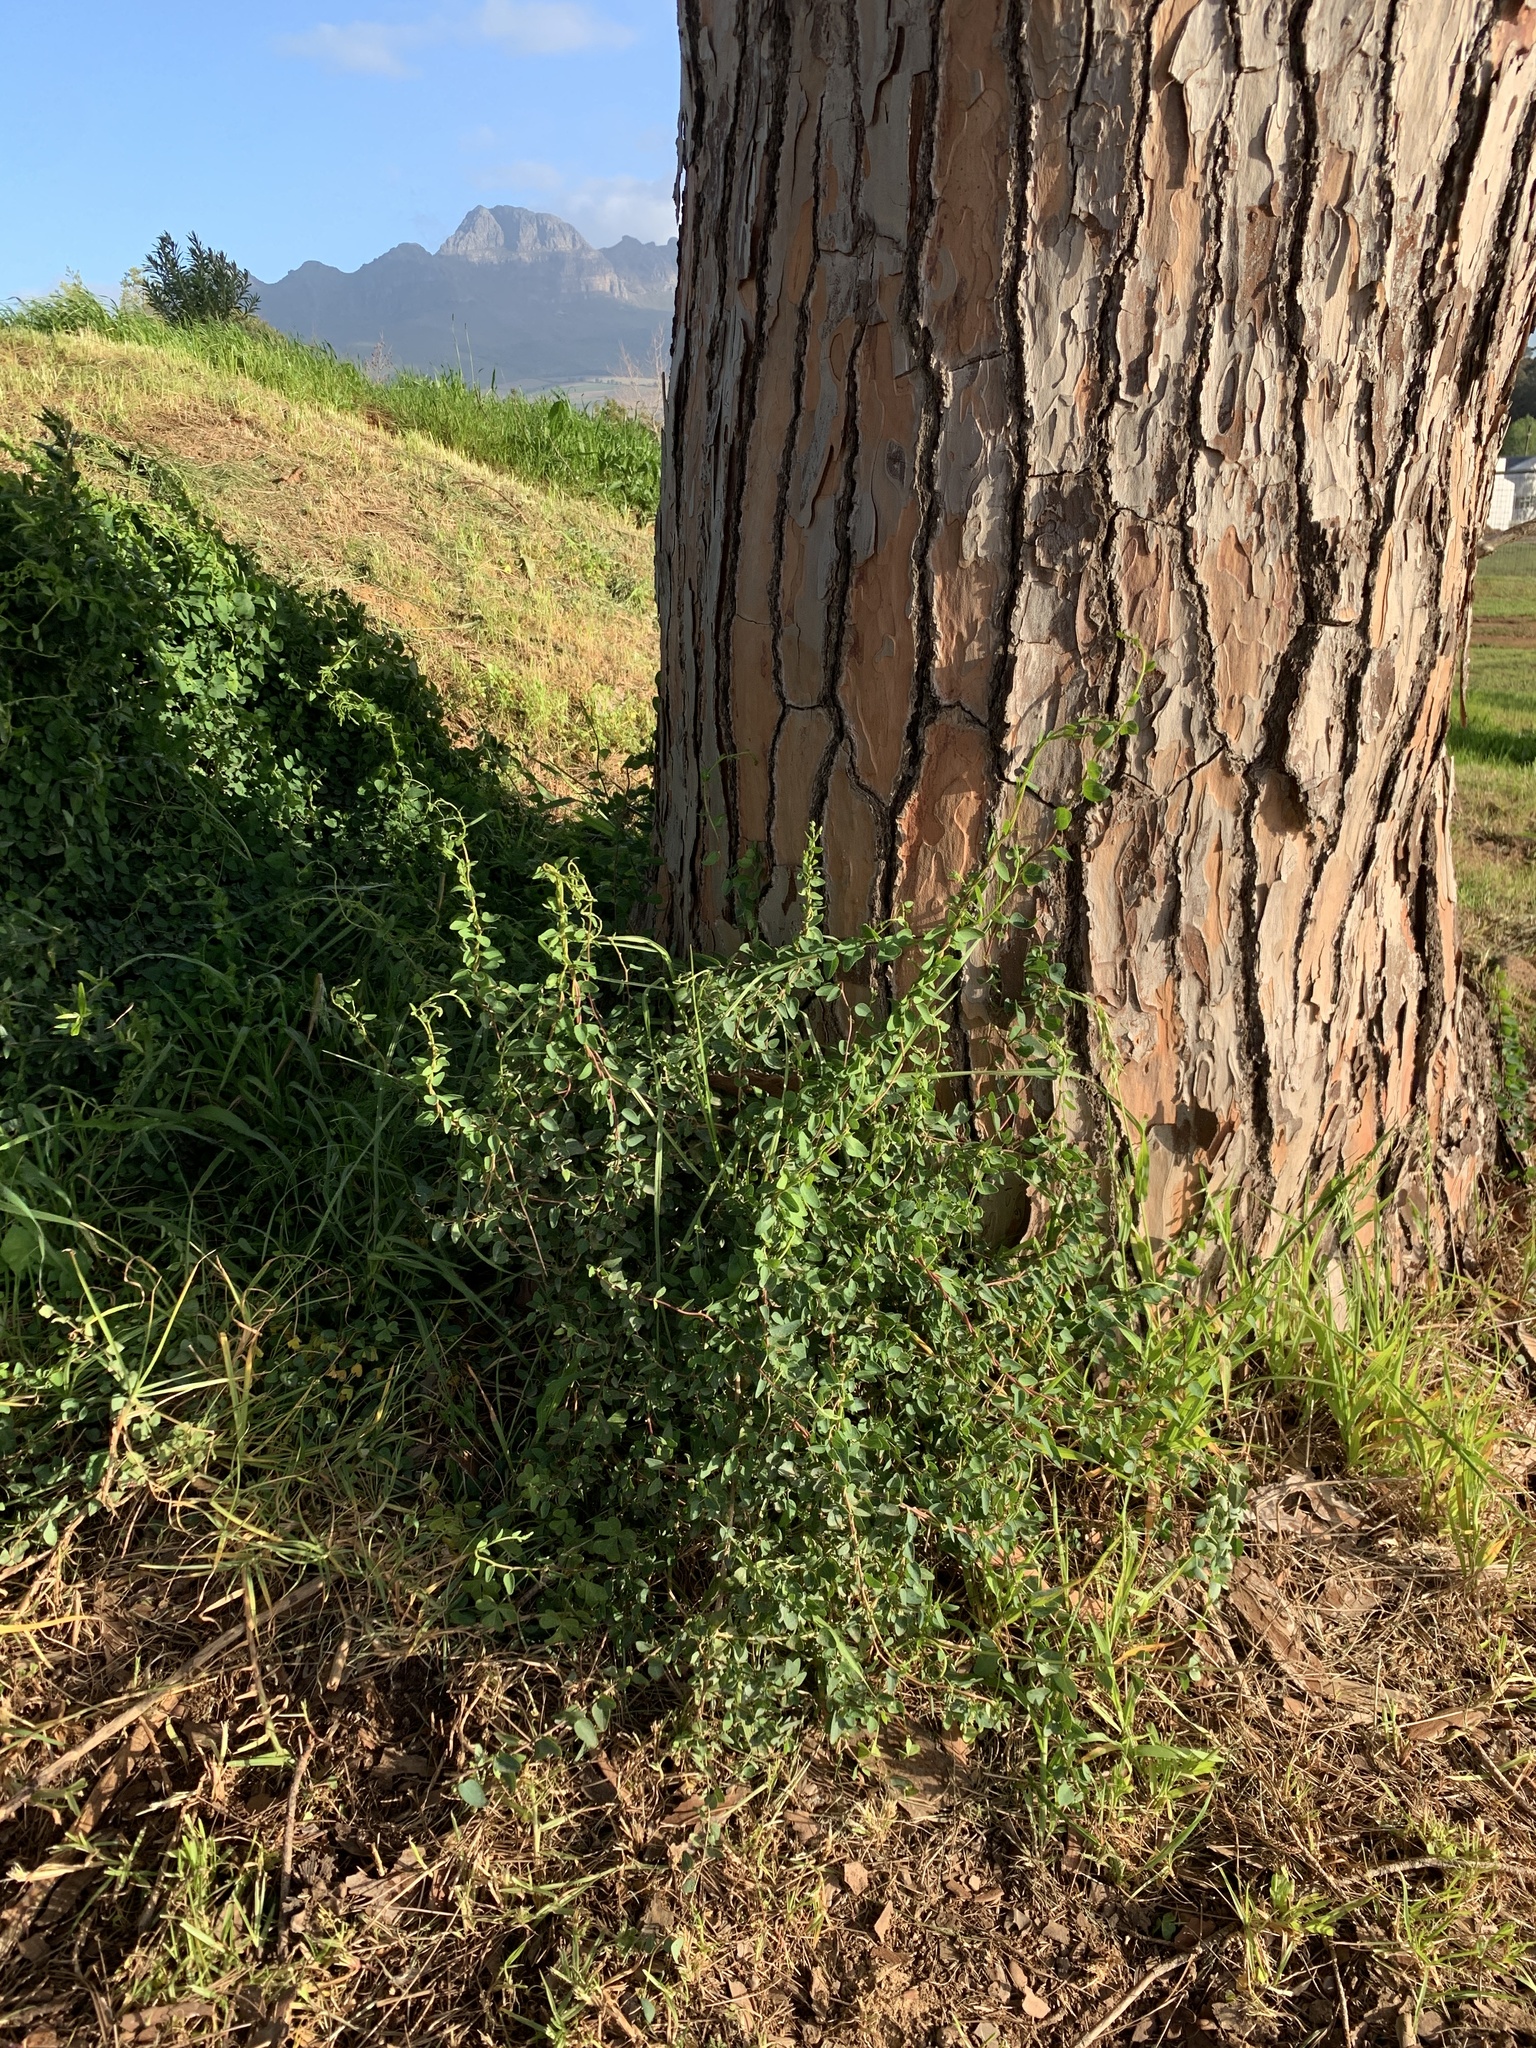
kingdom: Plantae
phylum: Tracheophyta
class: Magnoliopsida
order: Ranunculales
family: Menispermaceae
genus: Cissampelos
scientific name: Cissampelos capensis
